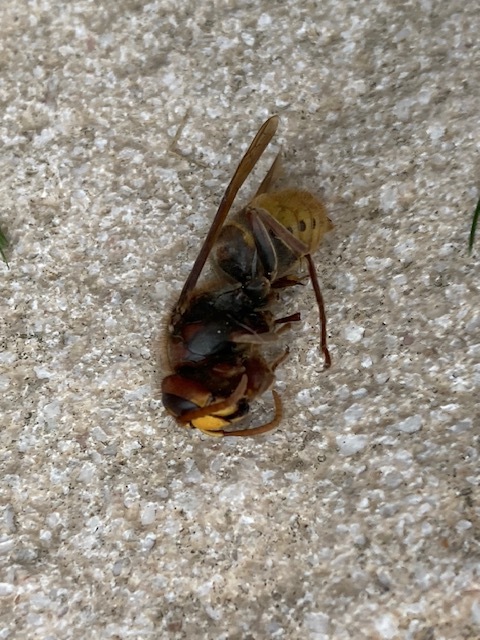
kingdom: Animalia
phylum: Arthropoda
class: Insecta
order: Hymenoptera
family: Vespidae
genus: Vespa
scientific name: Vespa crabro
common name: Hornet
